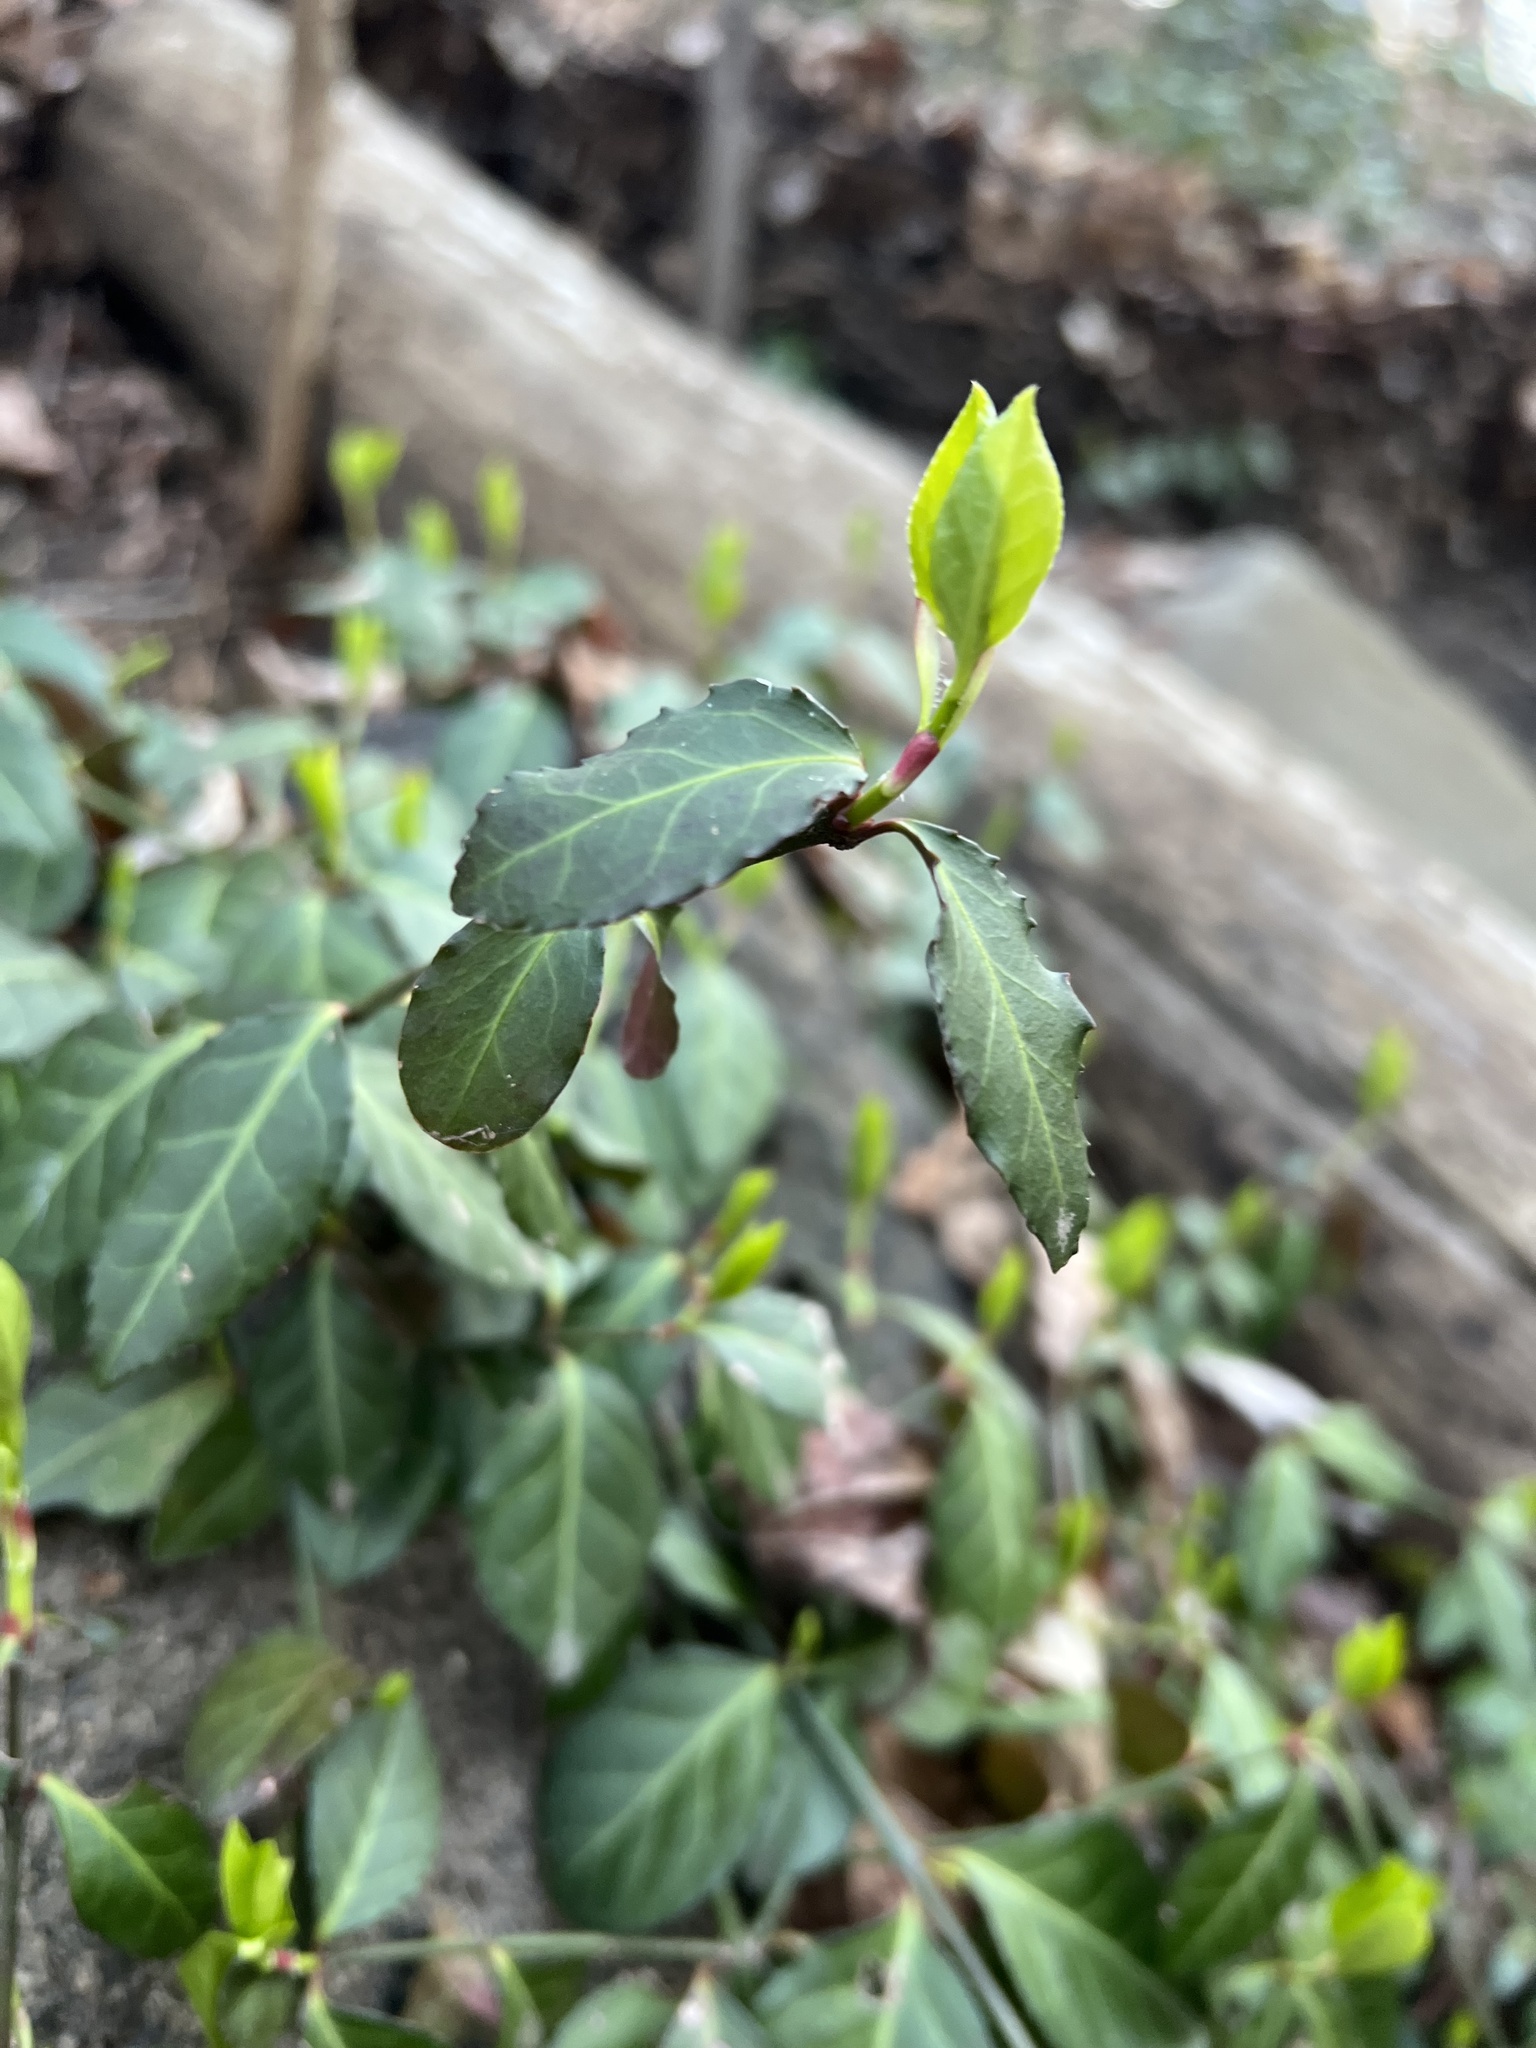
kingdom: Plantae
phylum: Tracheophyta
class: Magnoliopsida
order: Celastrales
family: Celastraceae
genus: Euonymus
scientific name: Euonymus fortunei
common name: Climbing euonymus
